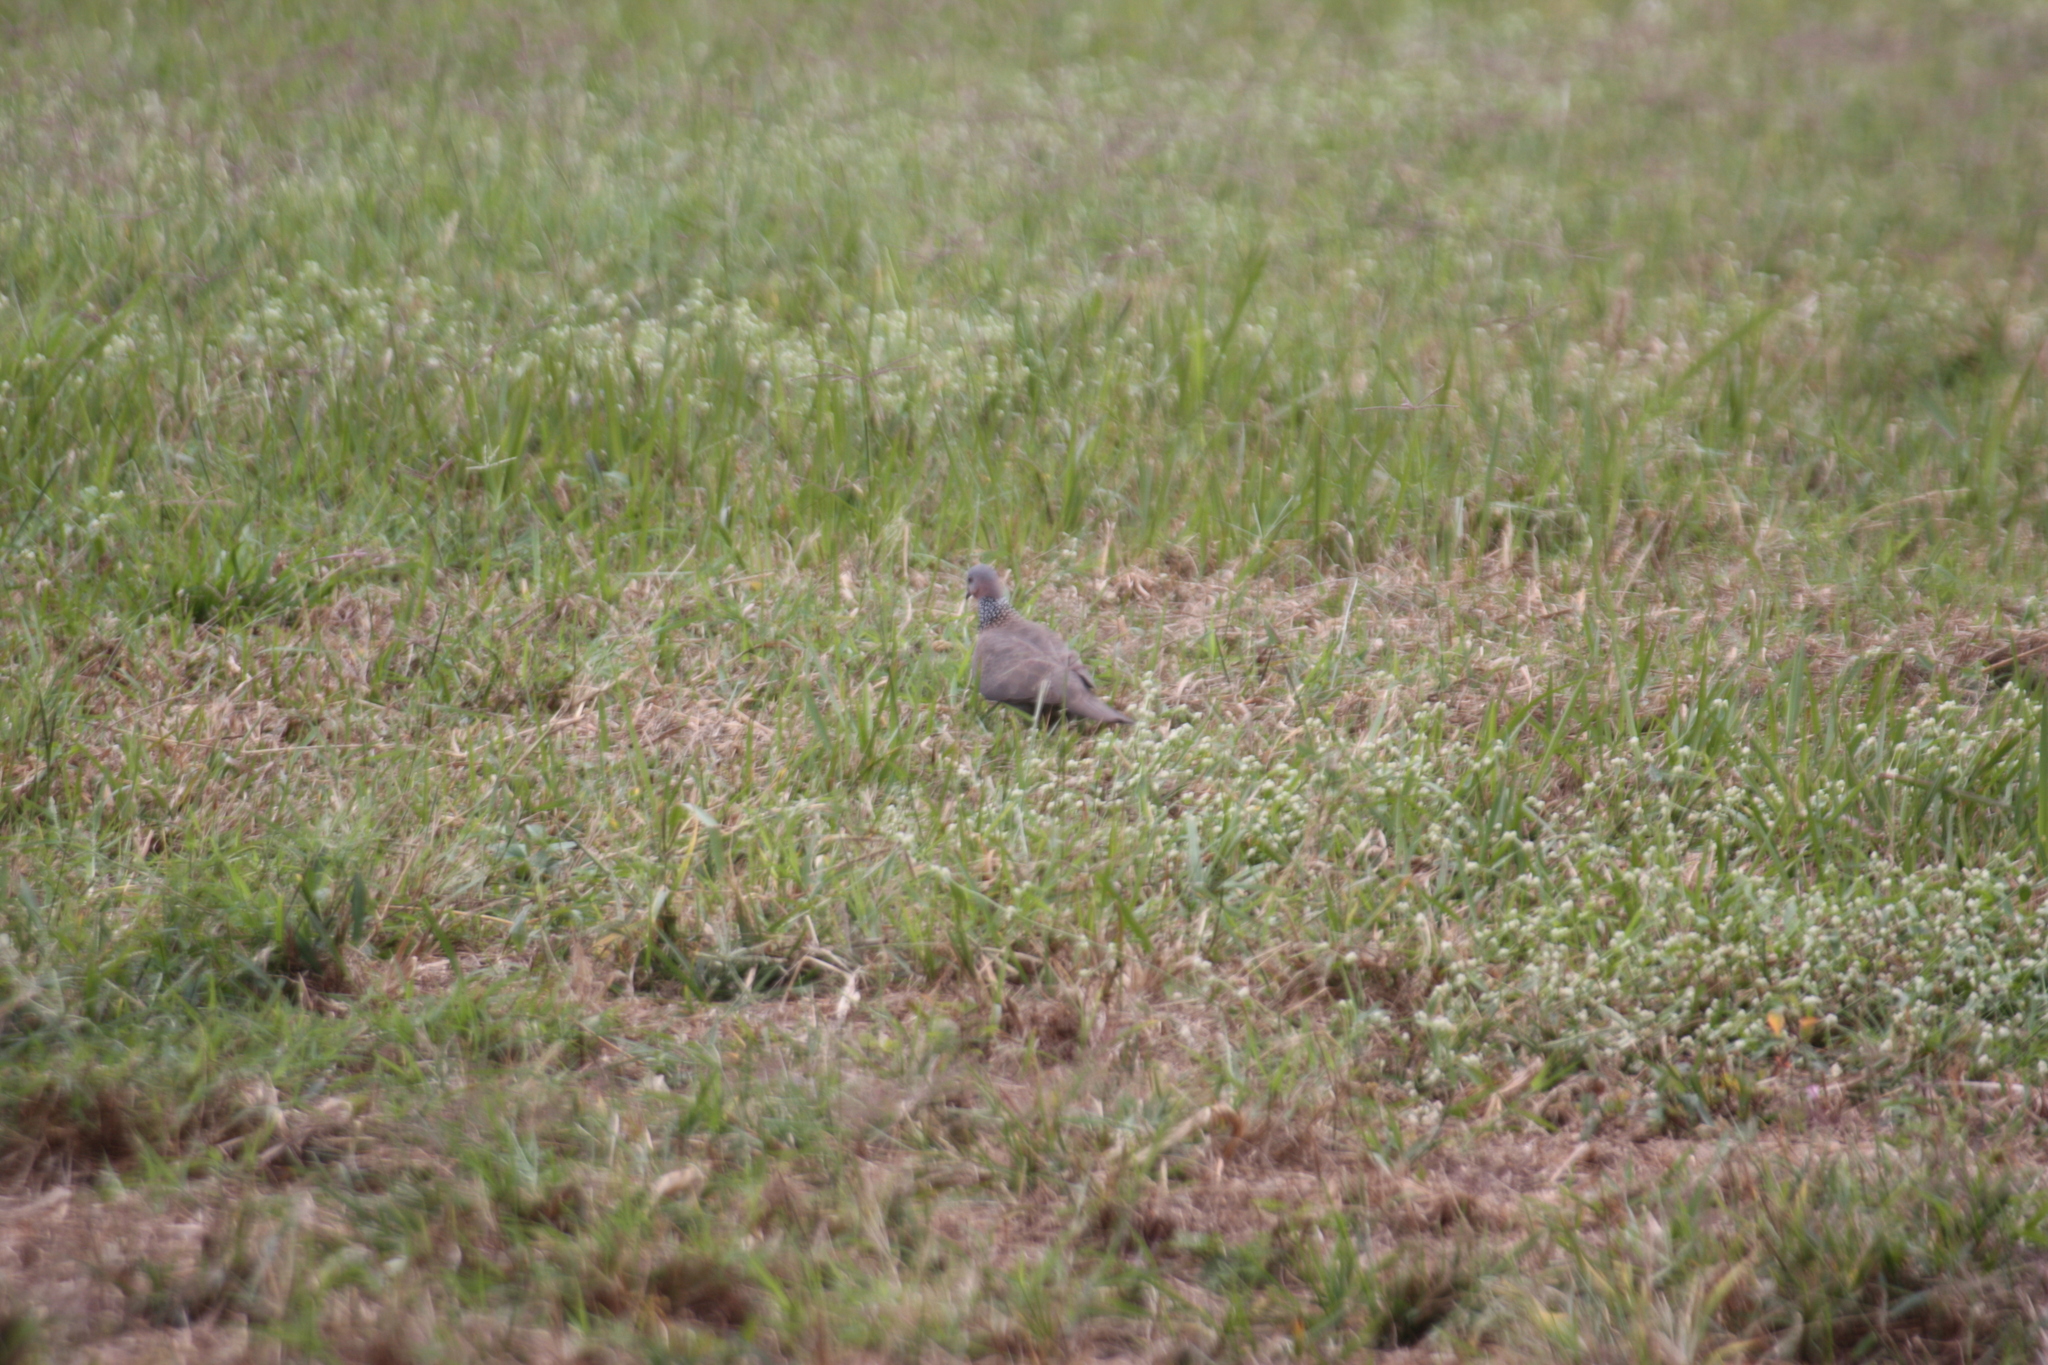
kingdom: Animalia
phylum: Chordata
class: Aves
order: Columbiformes
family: Columbidae
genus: Spilopelia
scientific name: Spilopelia chinensis
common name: Spotted dove
